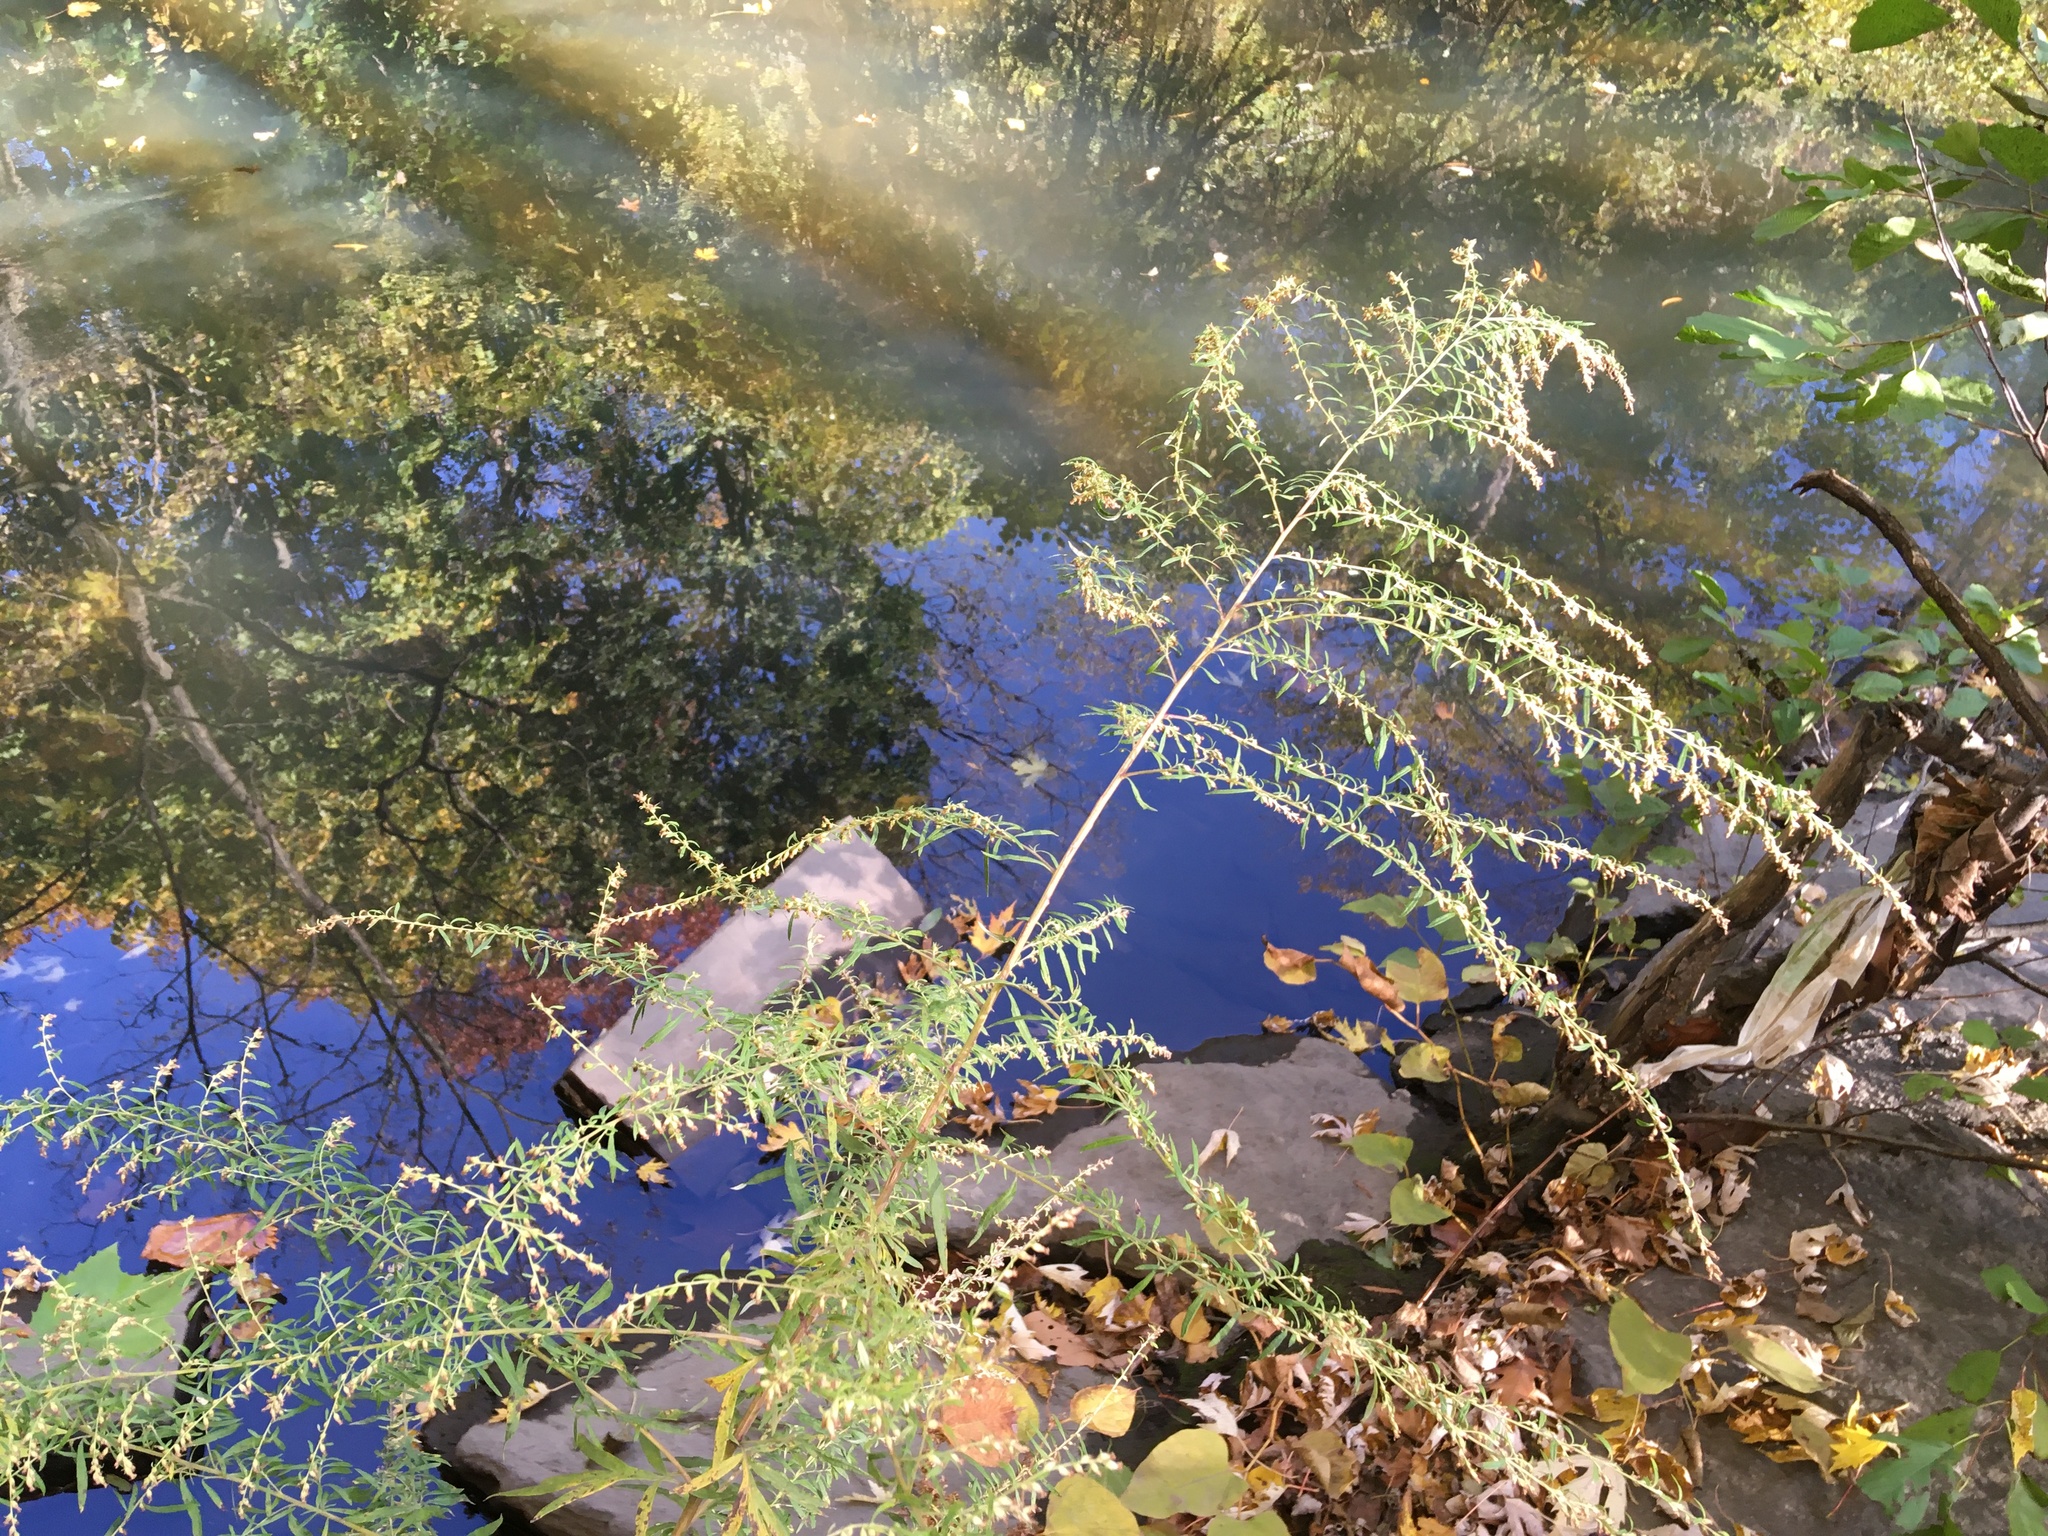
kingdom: Plantae
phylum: Tracheophyta
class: Magnoliopsida
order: Asterales
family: Asteraceae
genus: Artemisia
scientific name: Artemisia vulgaris
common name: Mugwort
